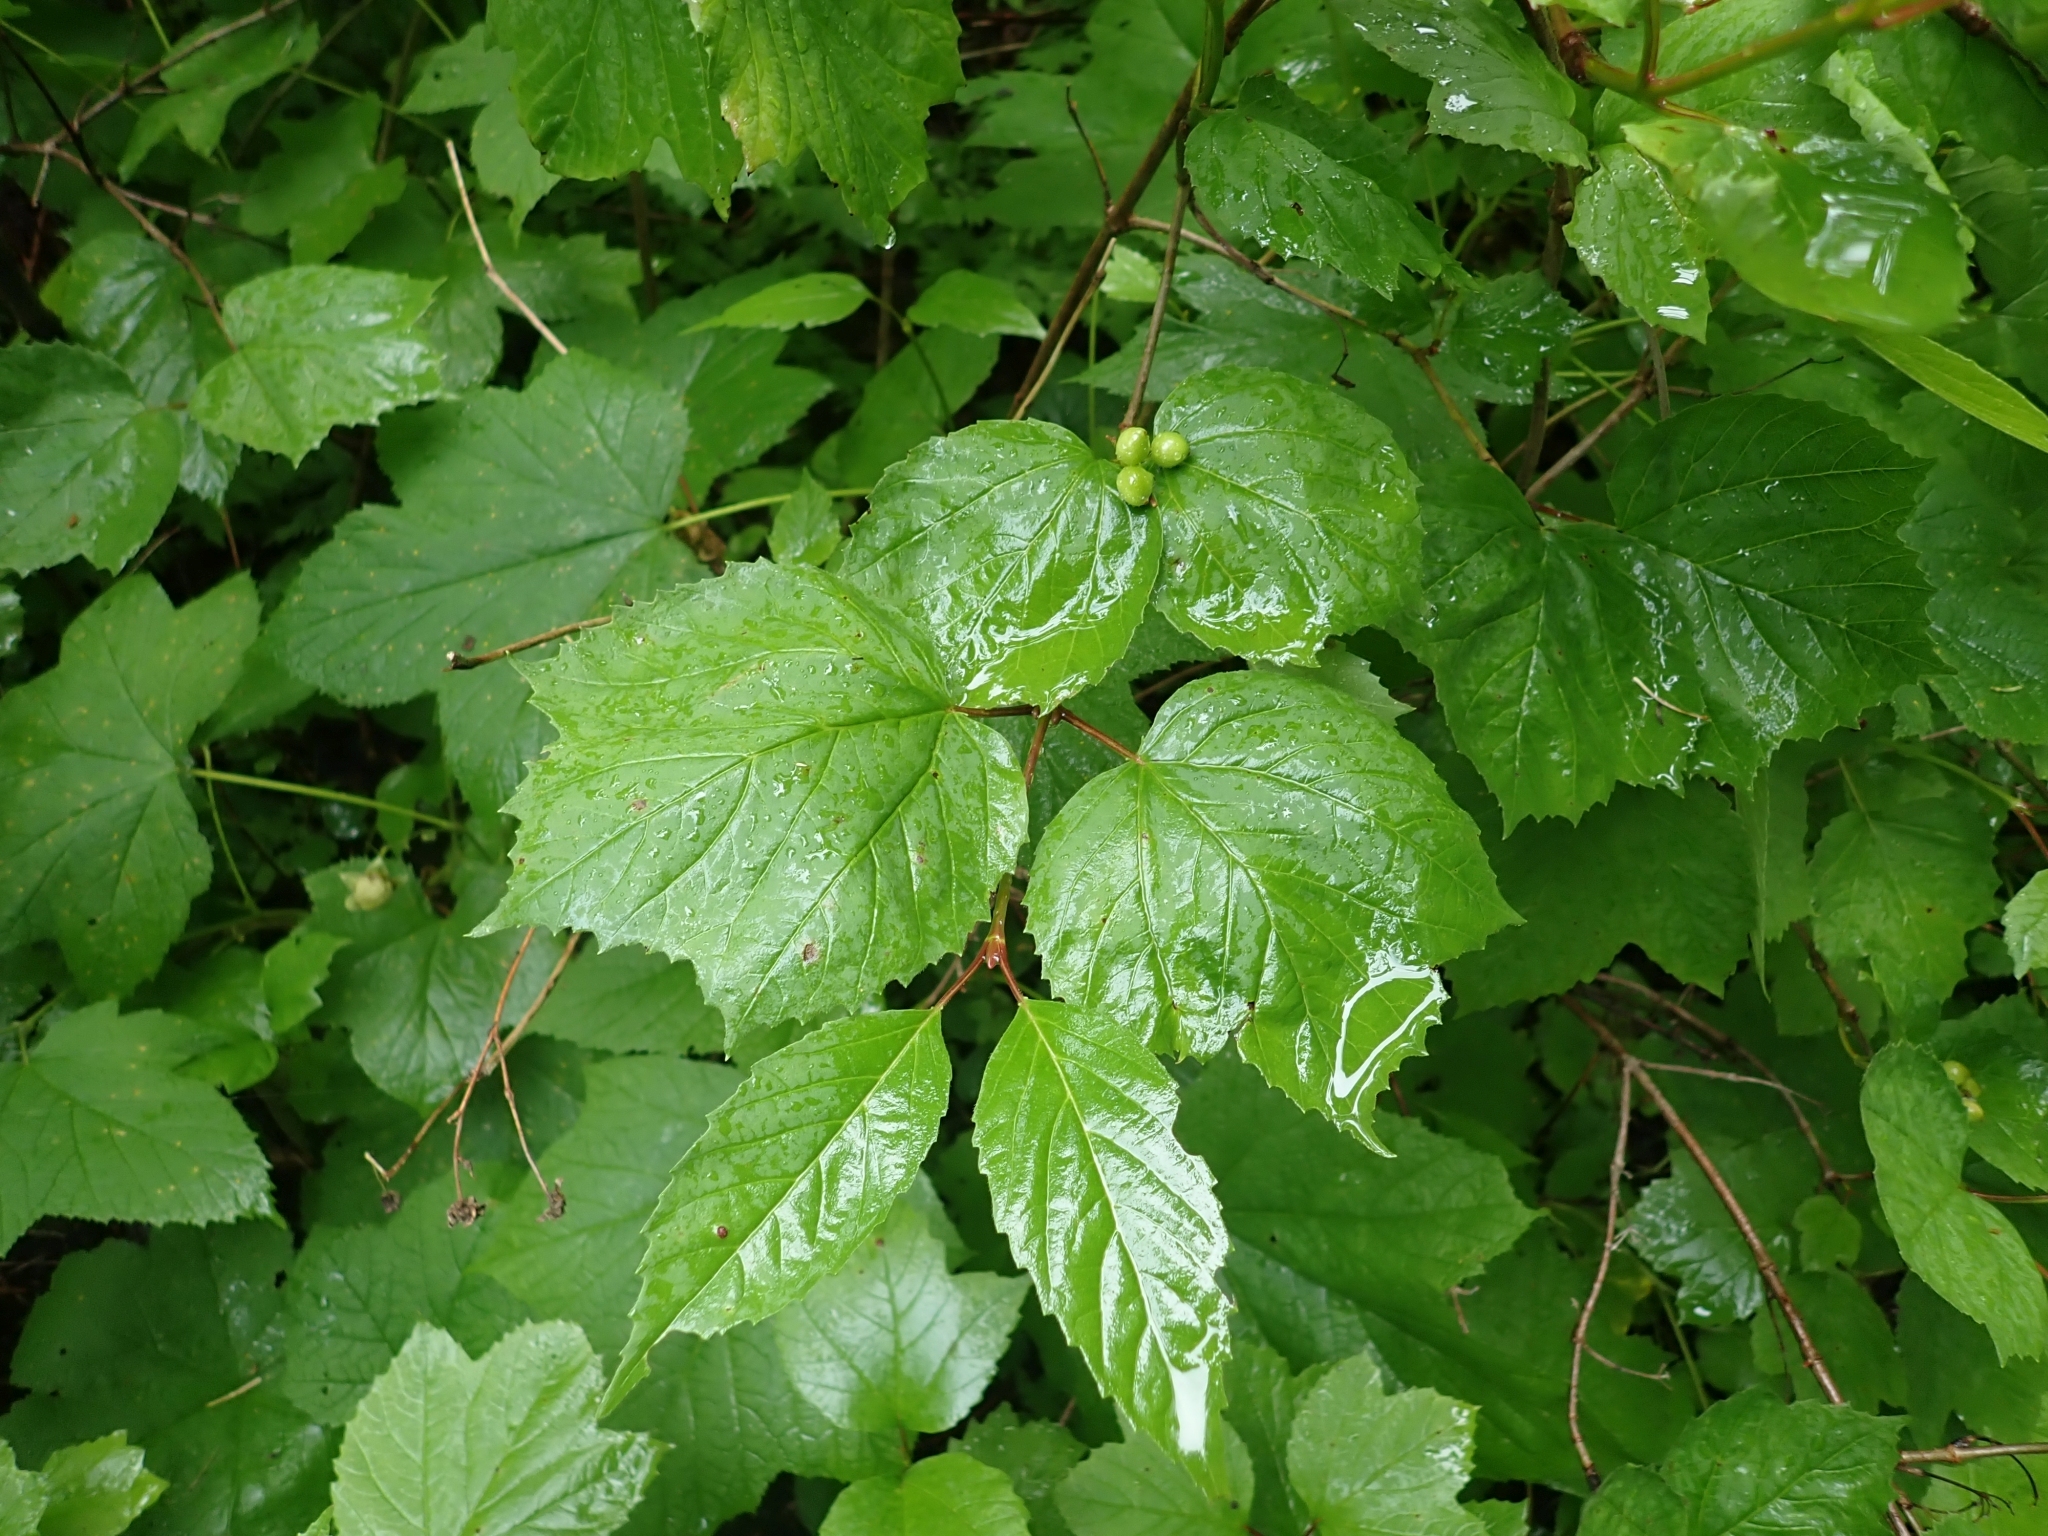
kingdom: Plantae
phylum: Tracheophyta
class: Magnoliopsida
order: Dipsacales
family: Viburnaceae
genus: Viburnum
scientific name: Viburnum edule
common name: Mooseberry
